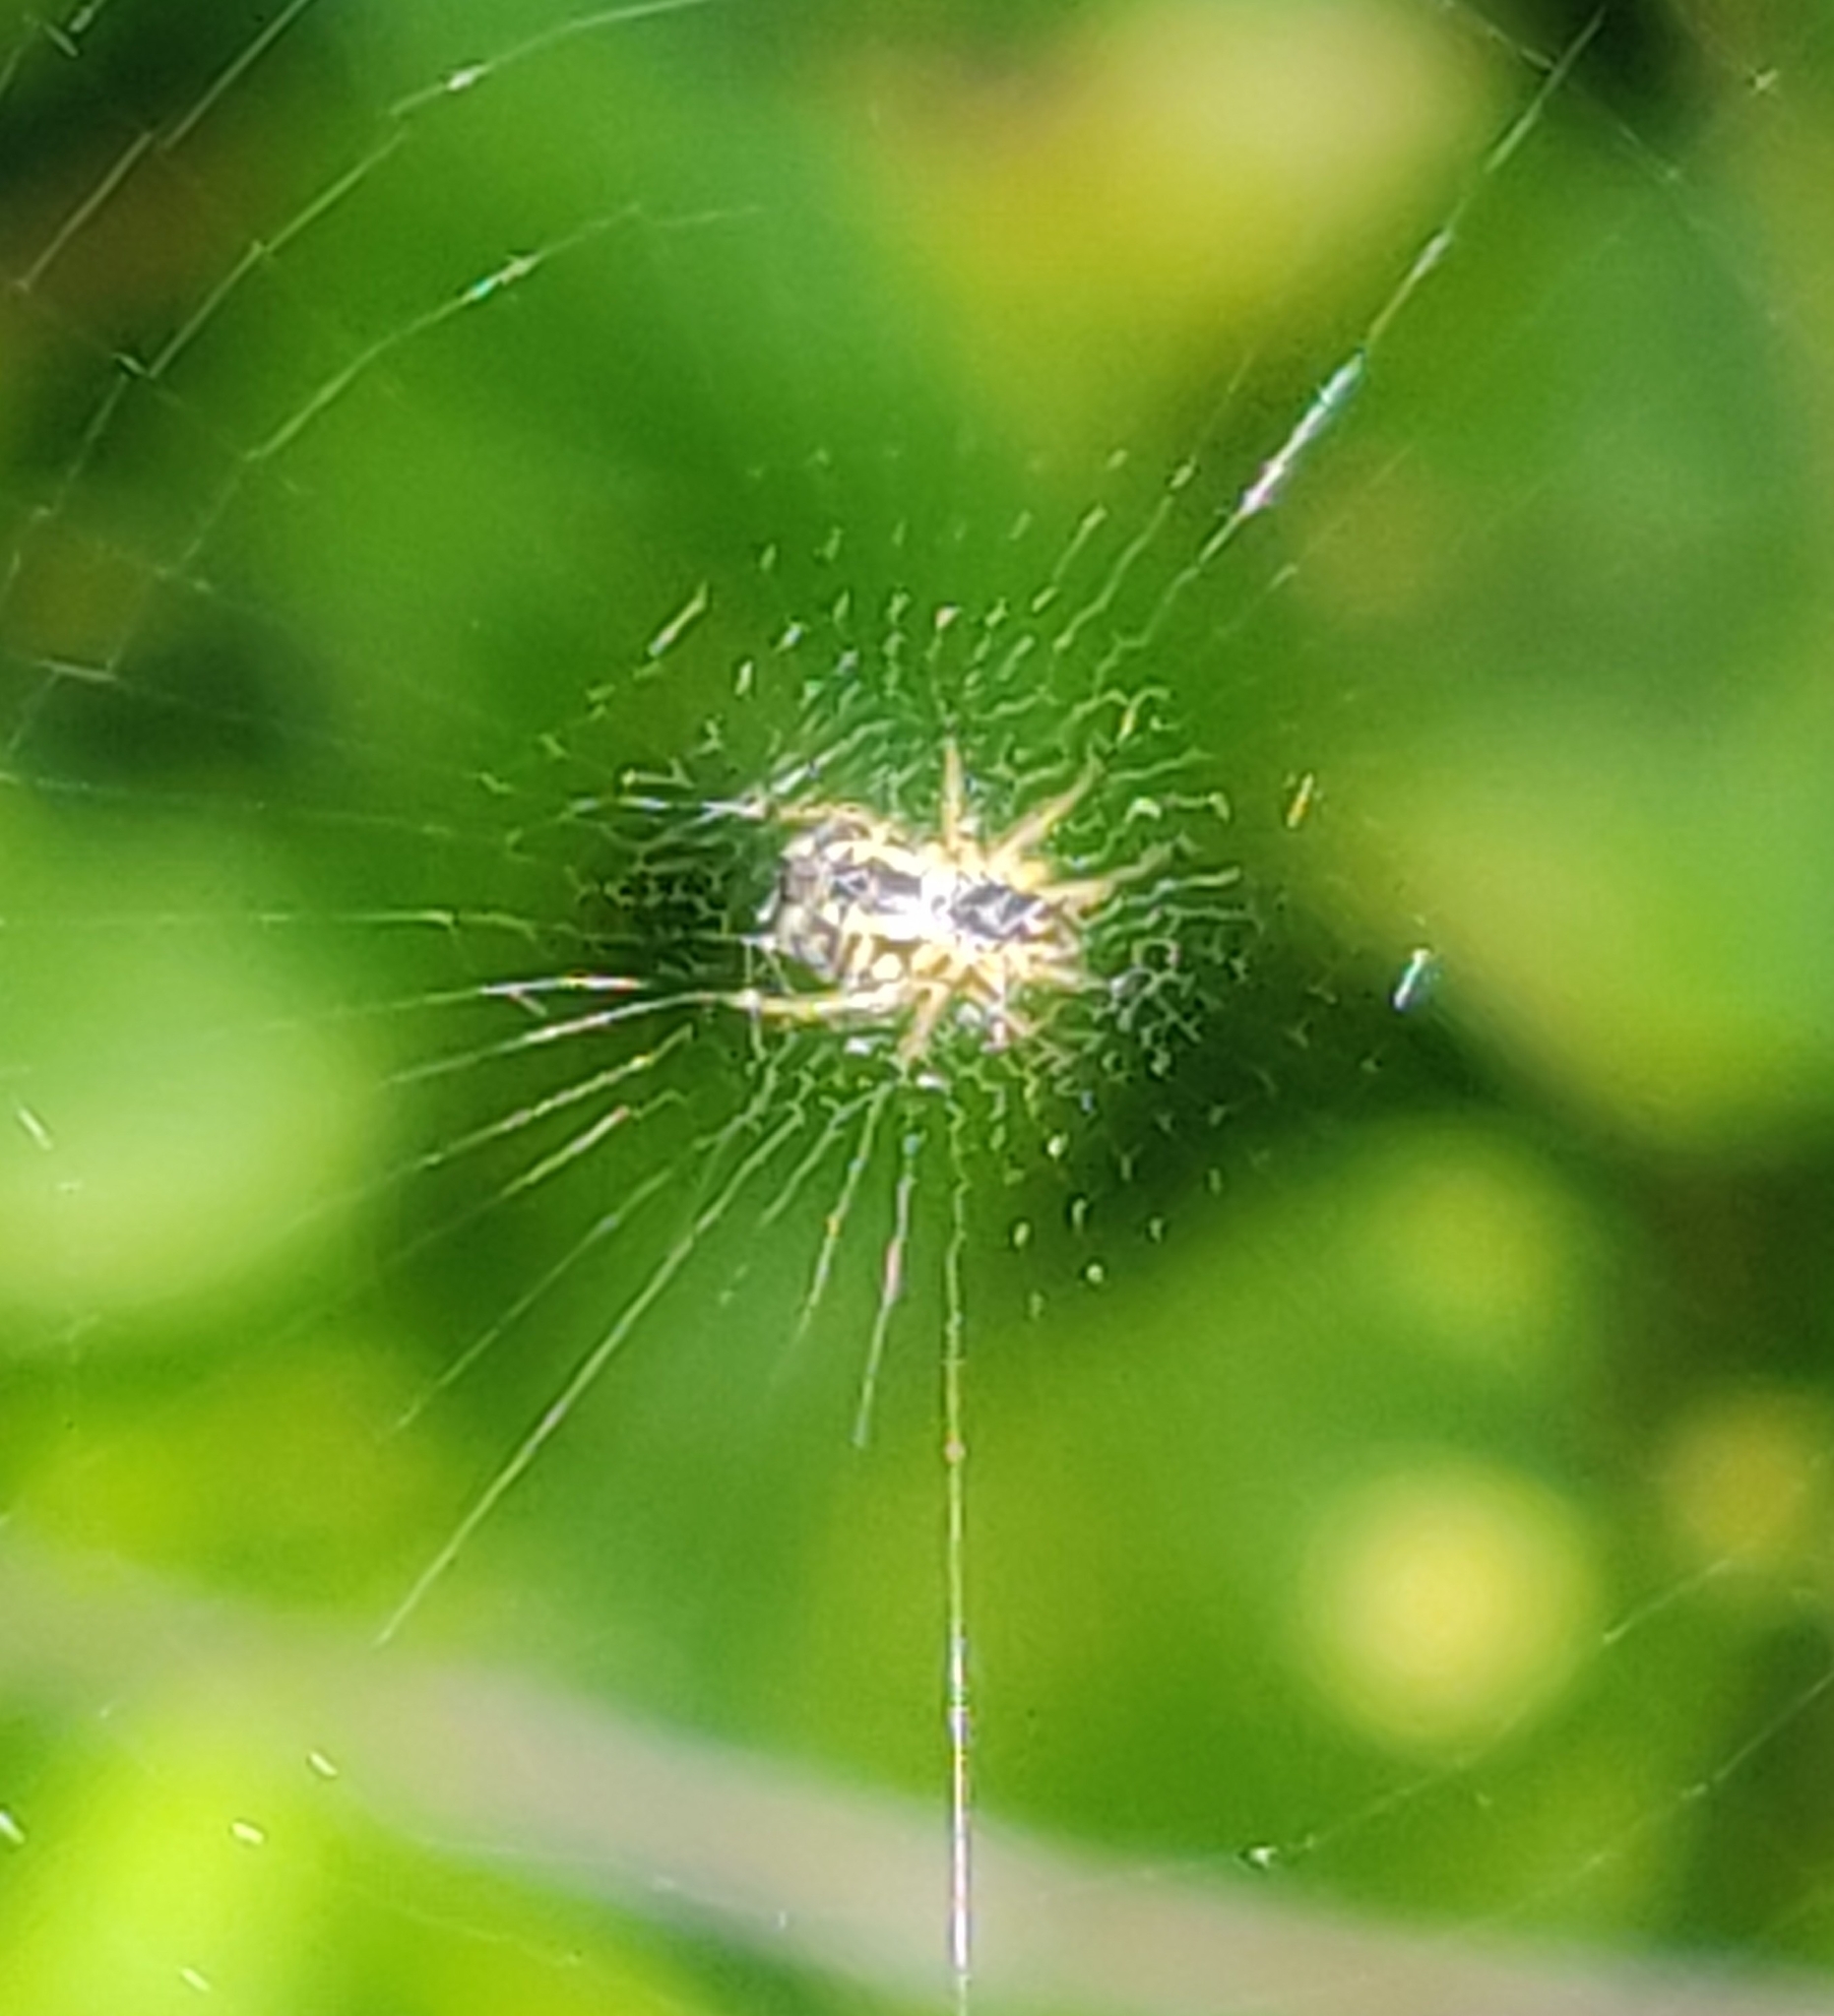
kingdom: Animalia
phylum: Arthropoda
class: Arachnida
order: Araneae
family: Araneidae
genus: Mangora
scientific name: Mangora acalypha
